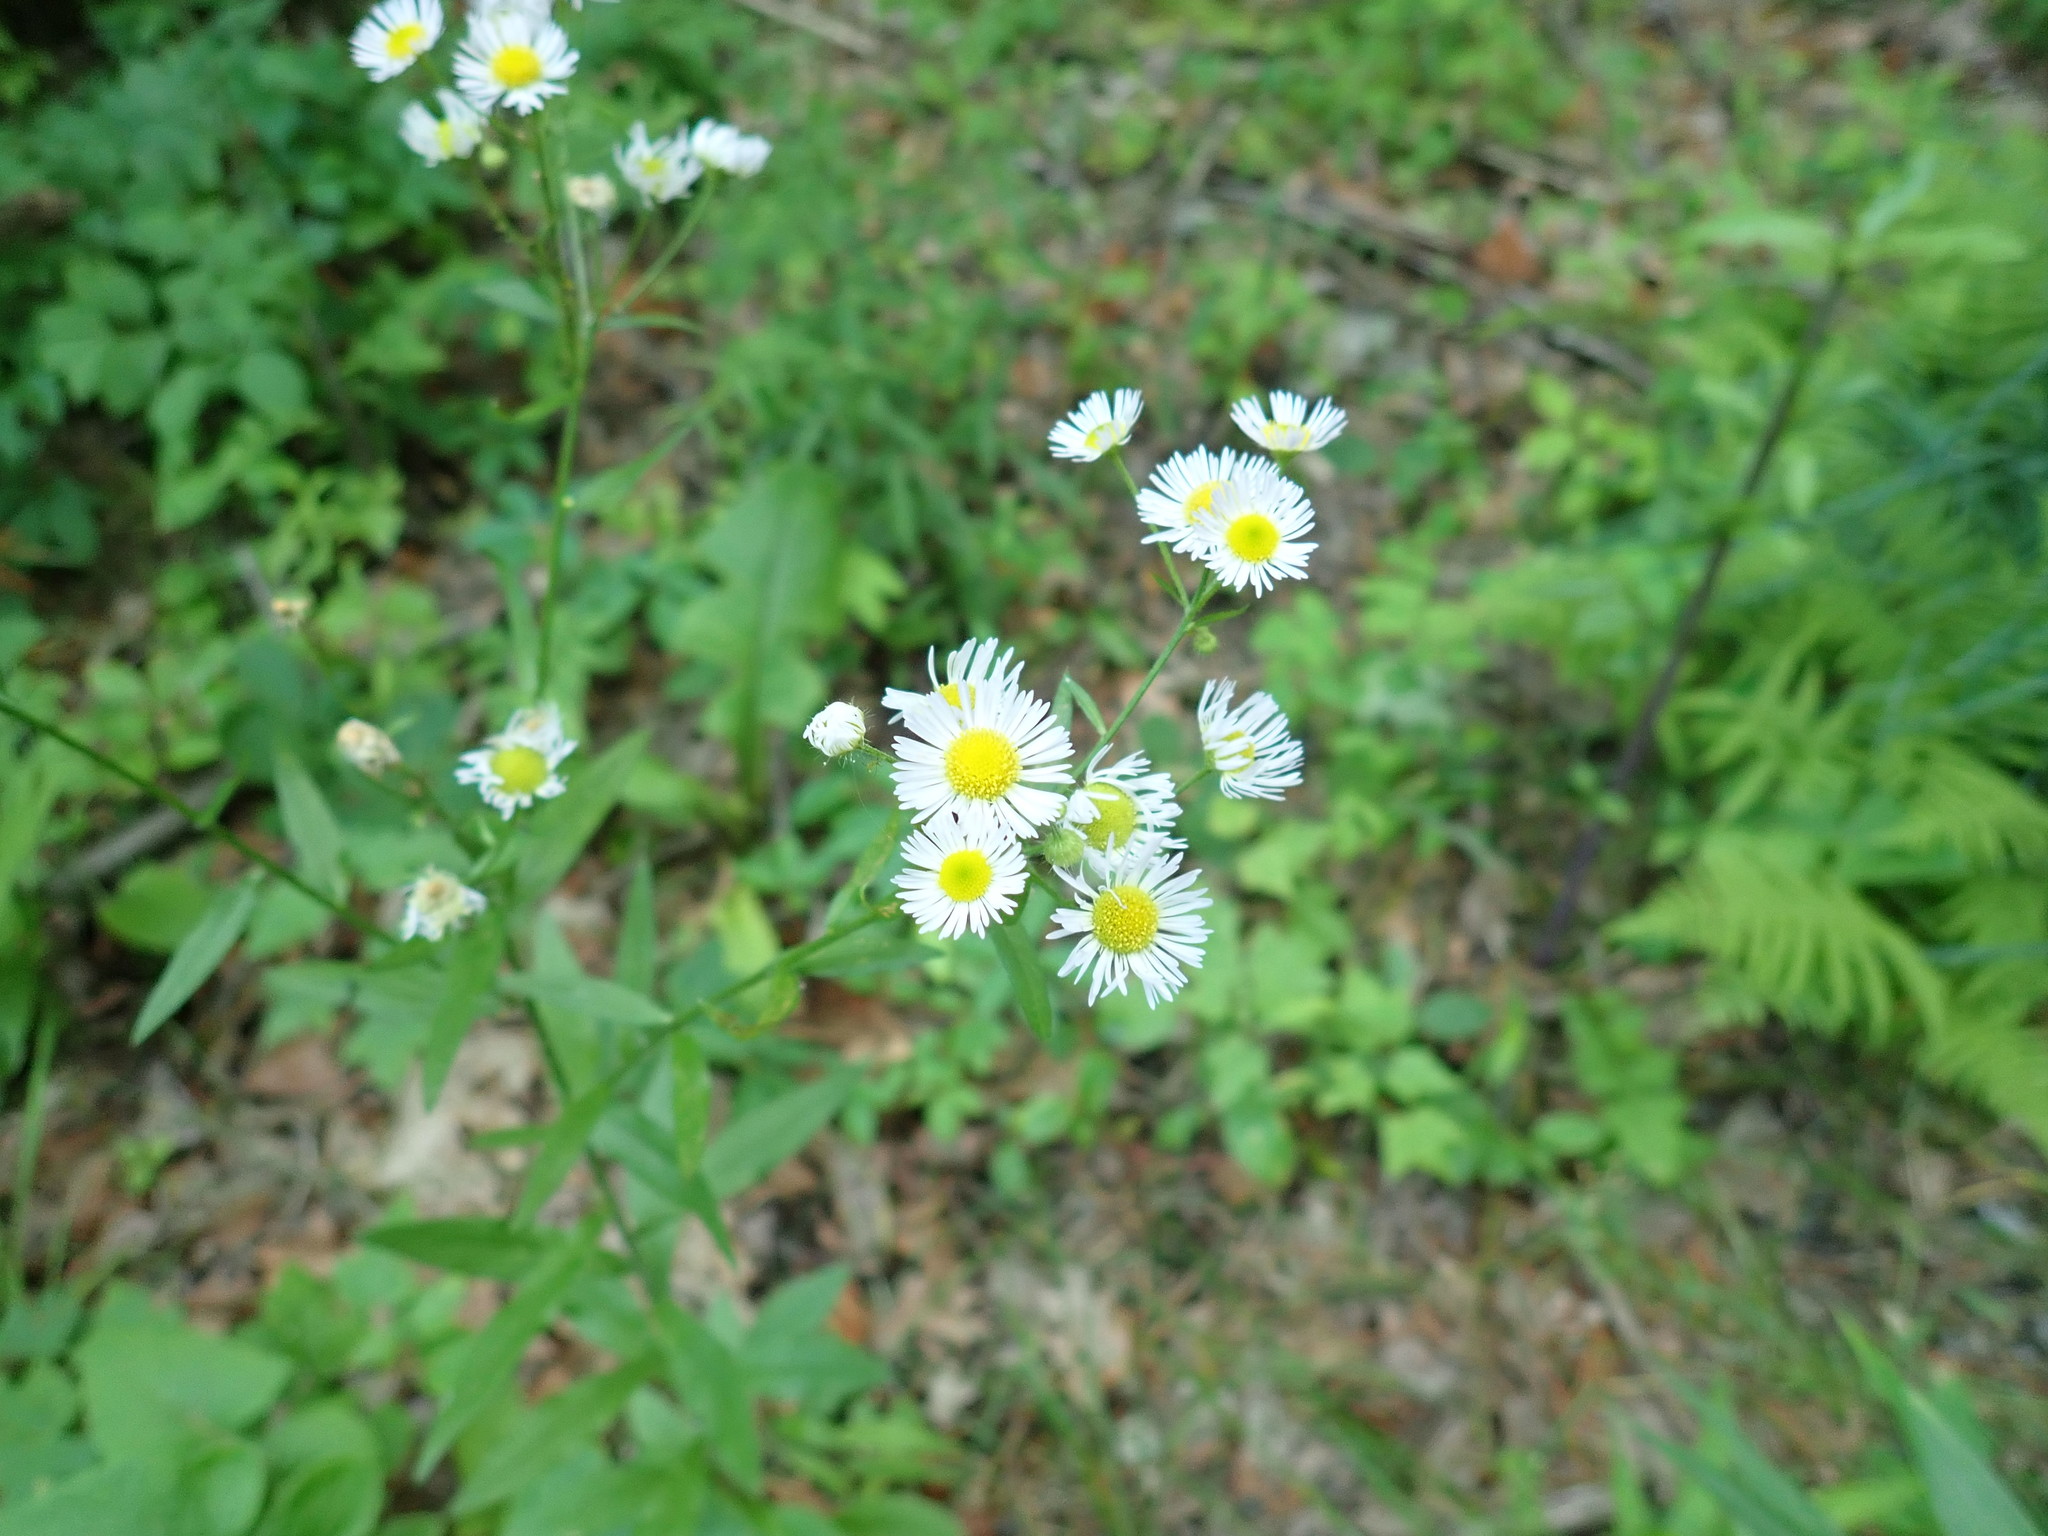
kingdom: Plantae
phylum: Tracheophyta
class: Magnoliopsida
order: Asterales
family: Asteraceae
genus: Erigeron
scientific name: Erigeron strigosus
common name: Common eastern fleabane
